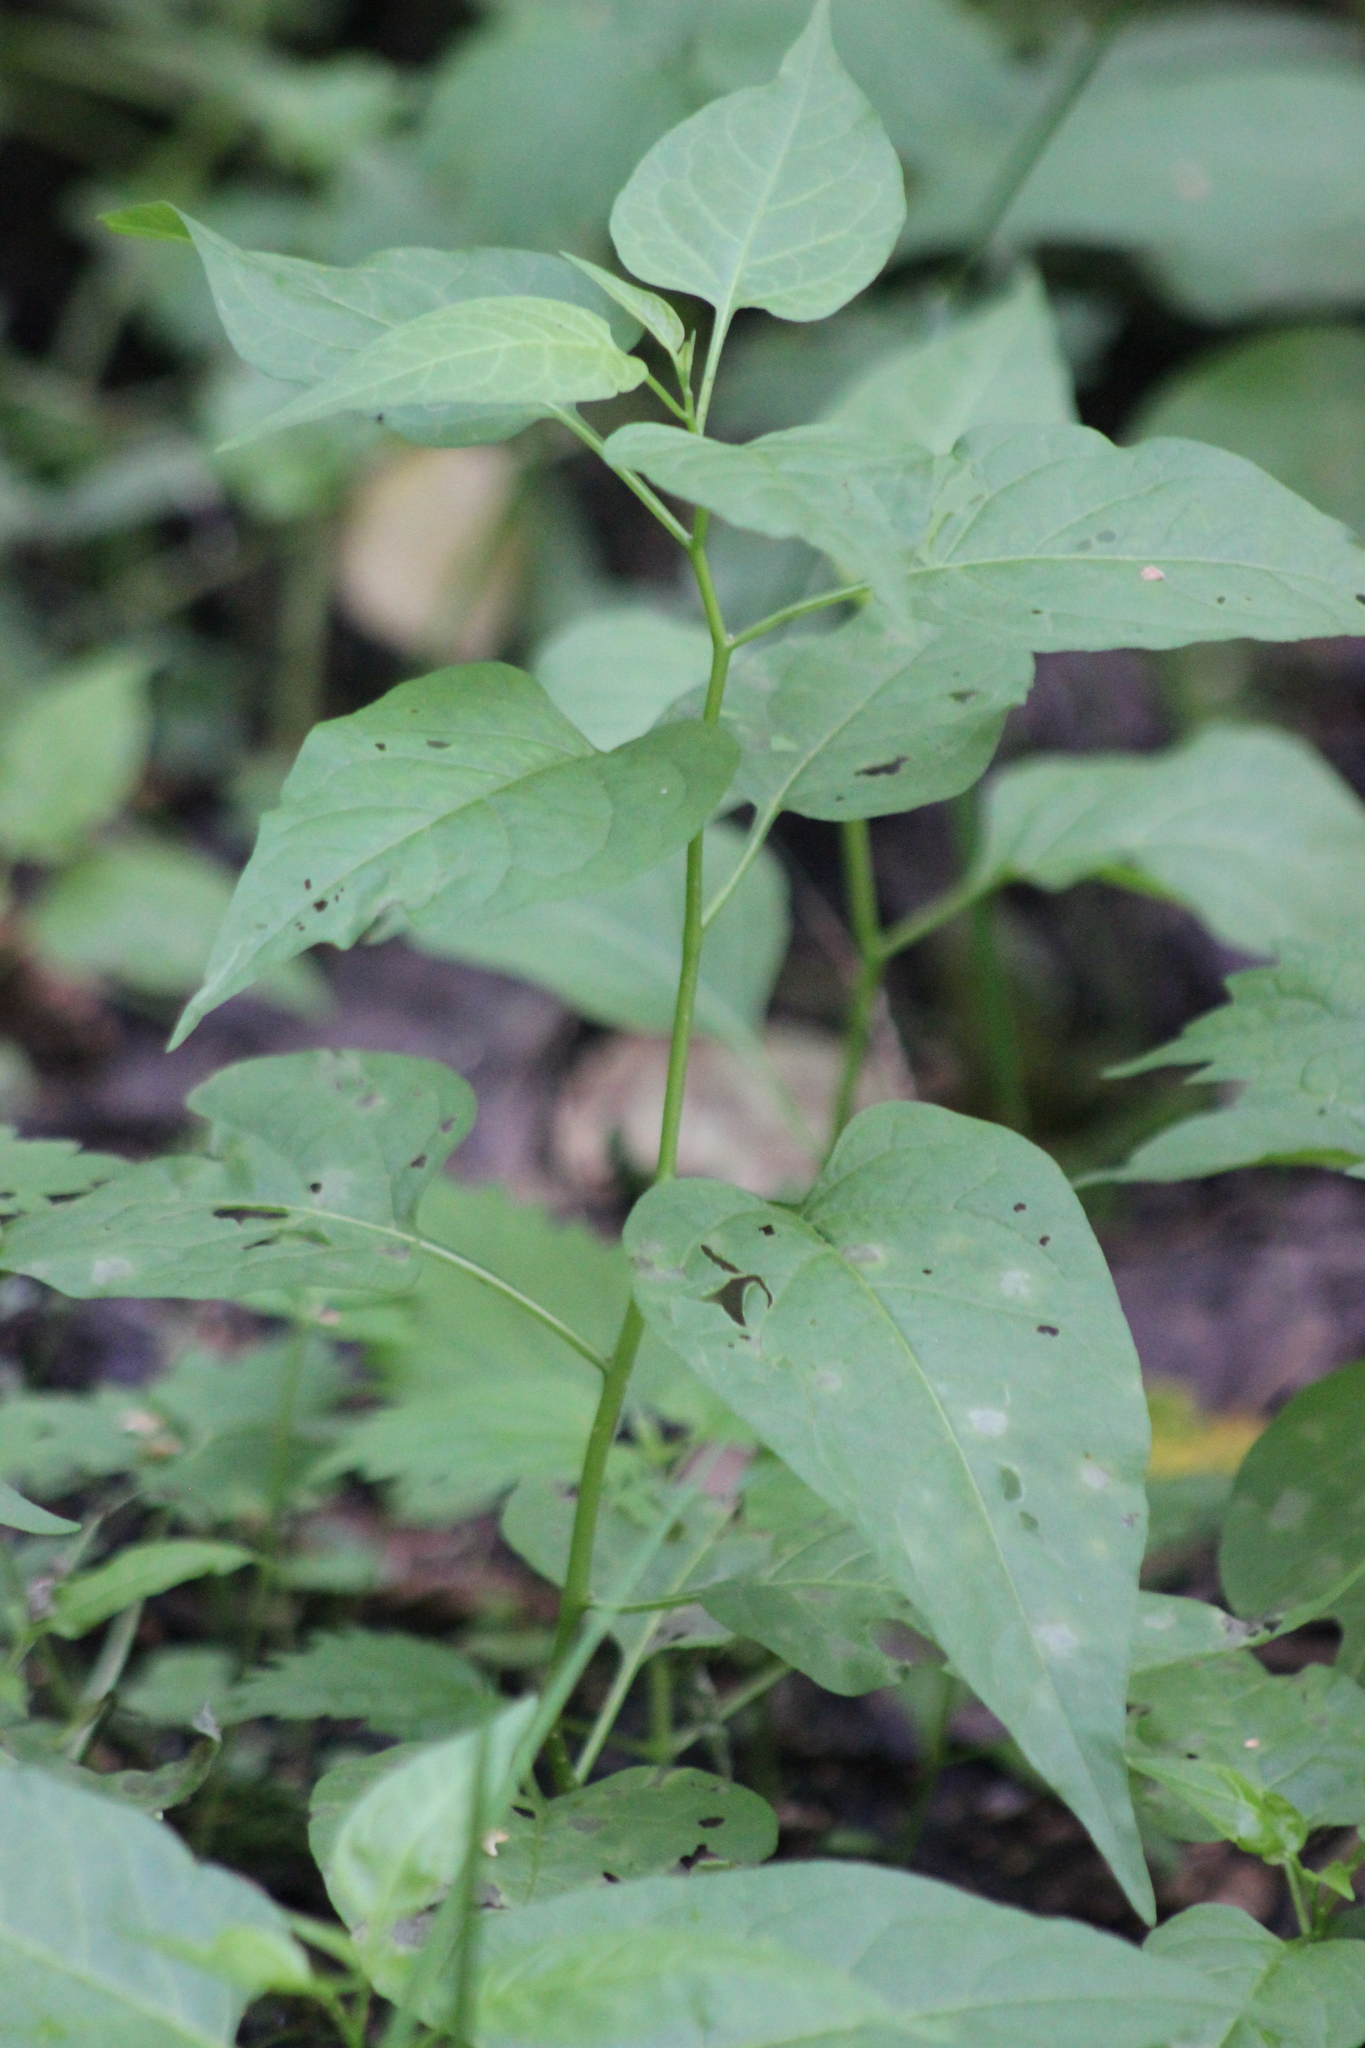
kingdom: Plantae
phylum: Tracheophyta
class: Magnoliopsida
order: Solanales
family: Solanaceae
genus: Solanum
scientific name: Solanum dulcamara
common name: Climbing nightshade
